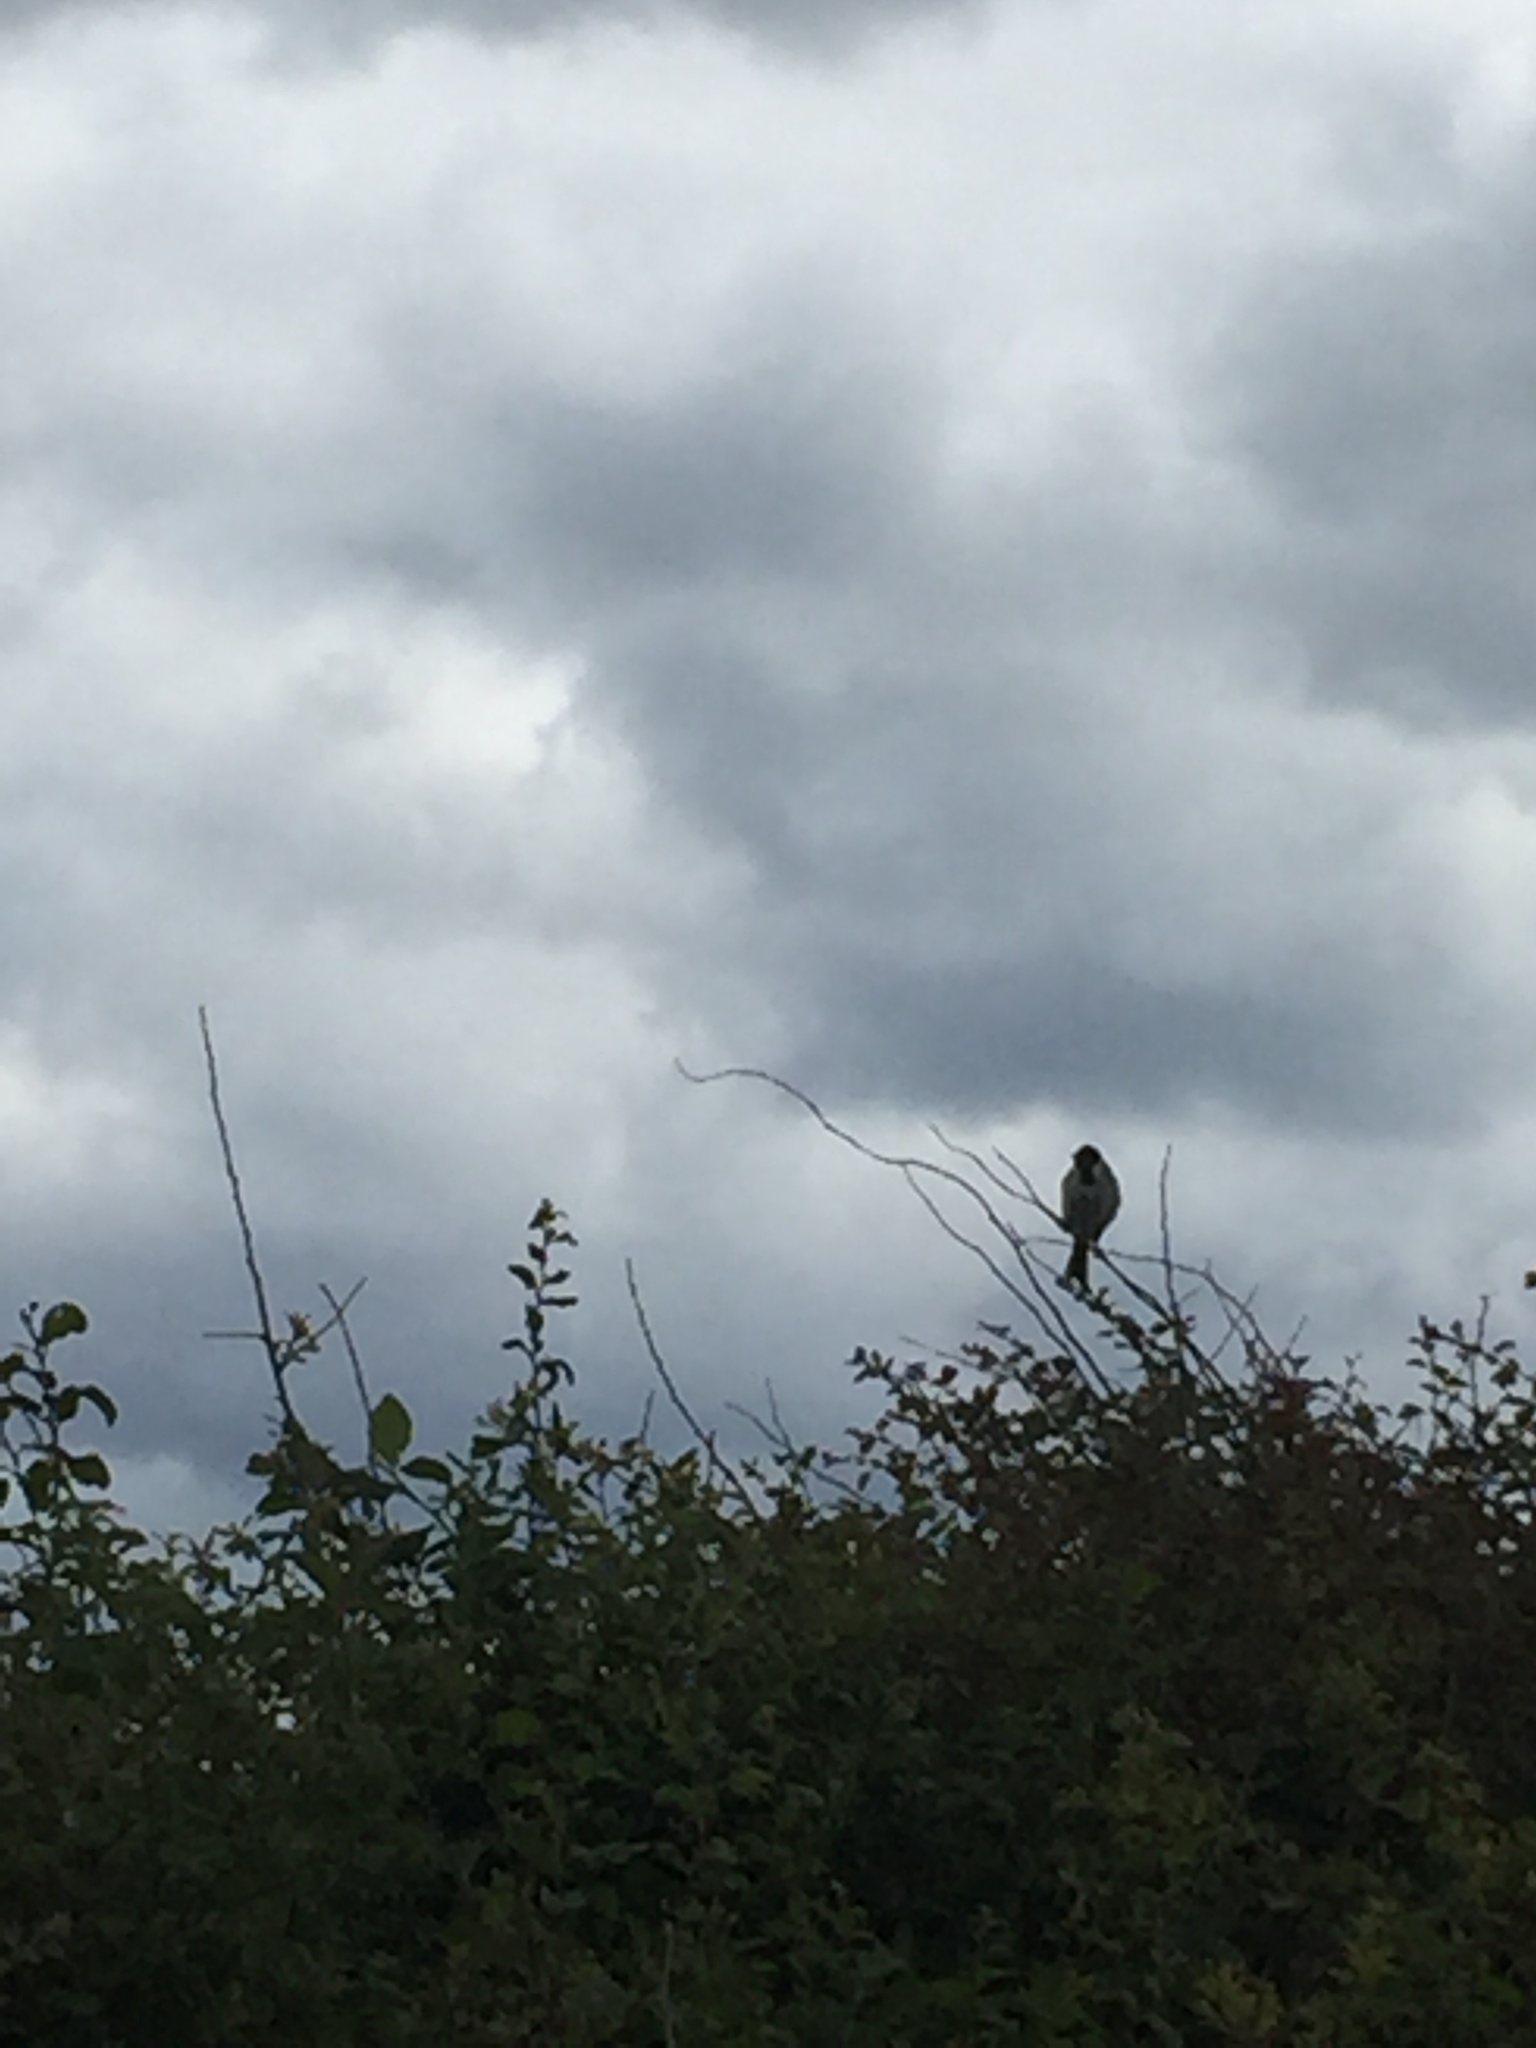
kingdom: Animalia
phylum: Chordata
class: Aves
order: Passeriformes
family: Emberizidae
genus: Emberiza
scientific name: Emberiza schoeniclus
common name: Reed bunting
